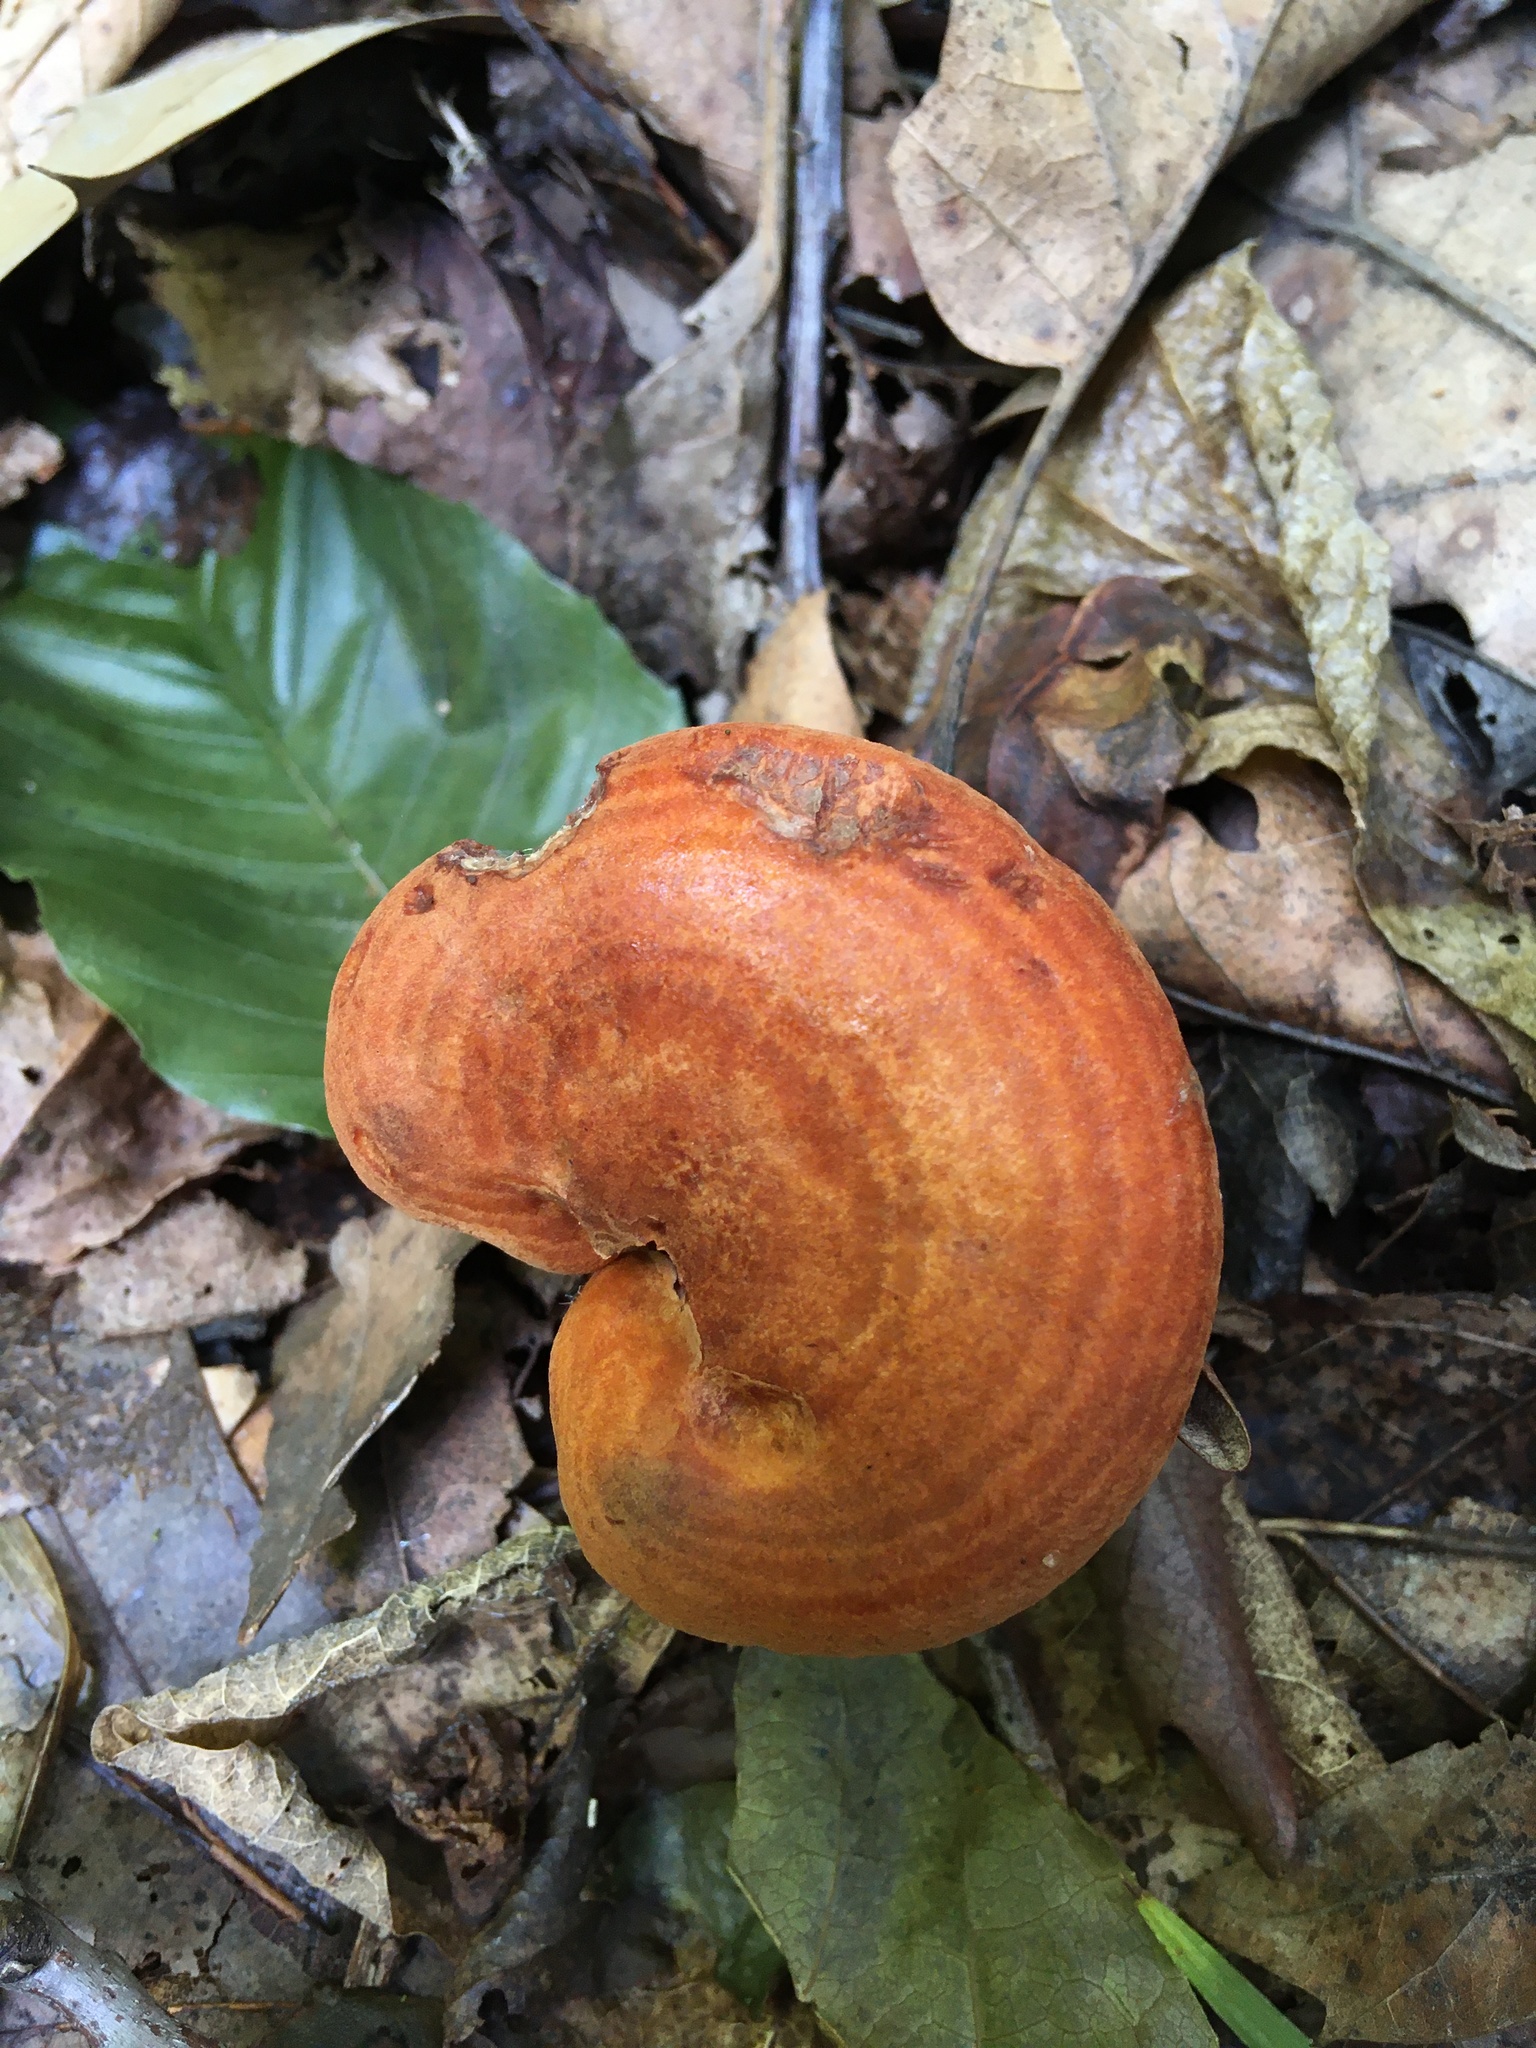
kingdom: Fungi
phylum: Basidiomycota
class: Agaricomycetes
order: Russulales
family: Russulaceae
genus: Lactarius
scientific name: Lactarius peckii
